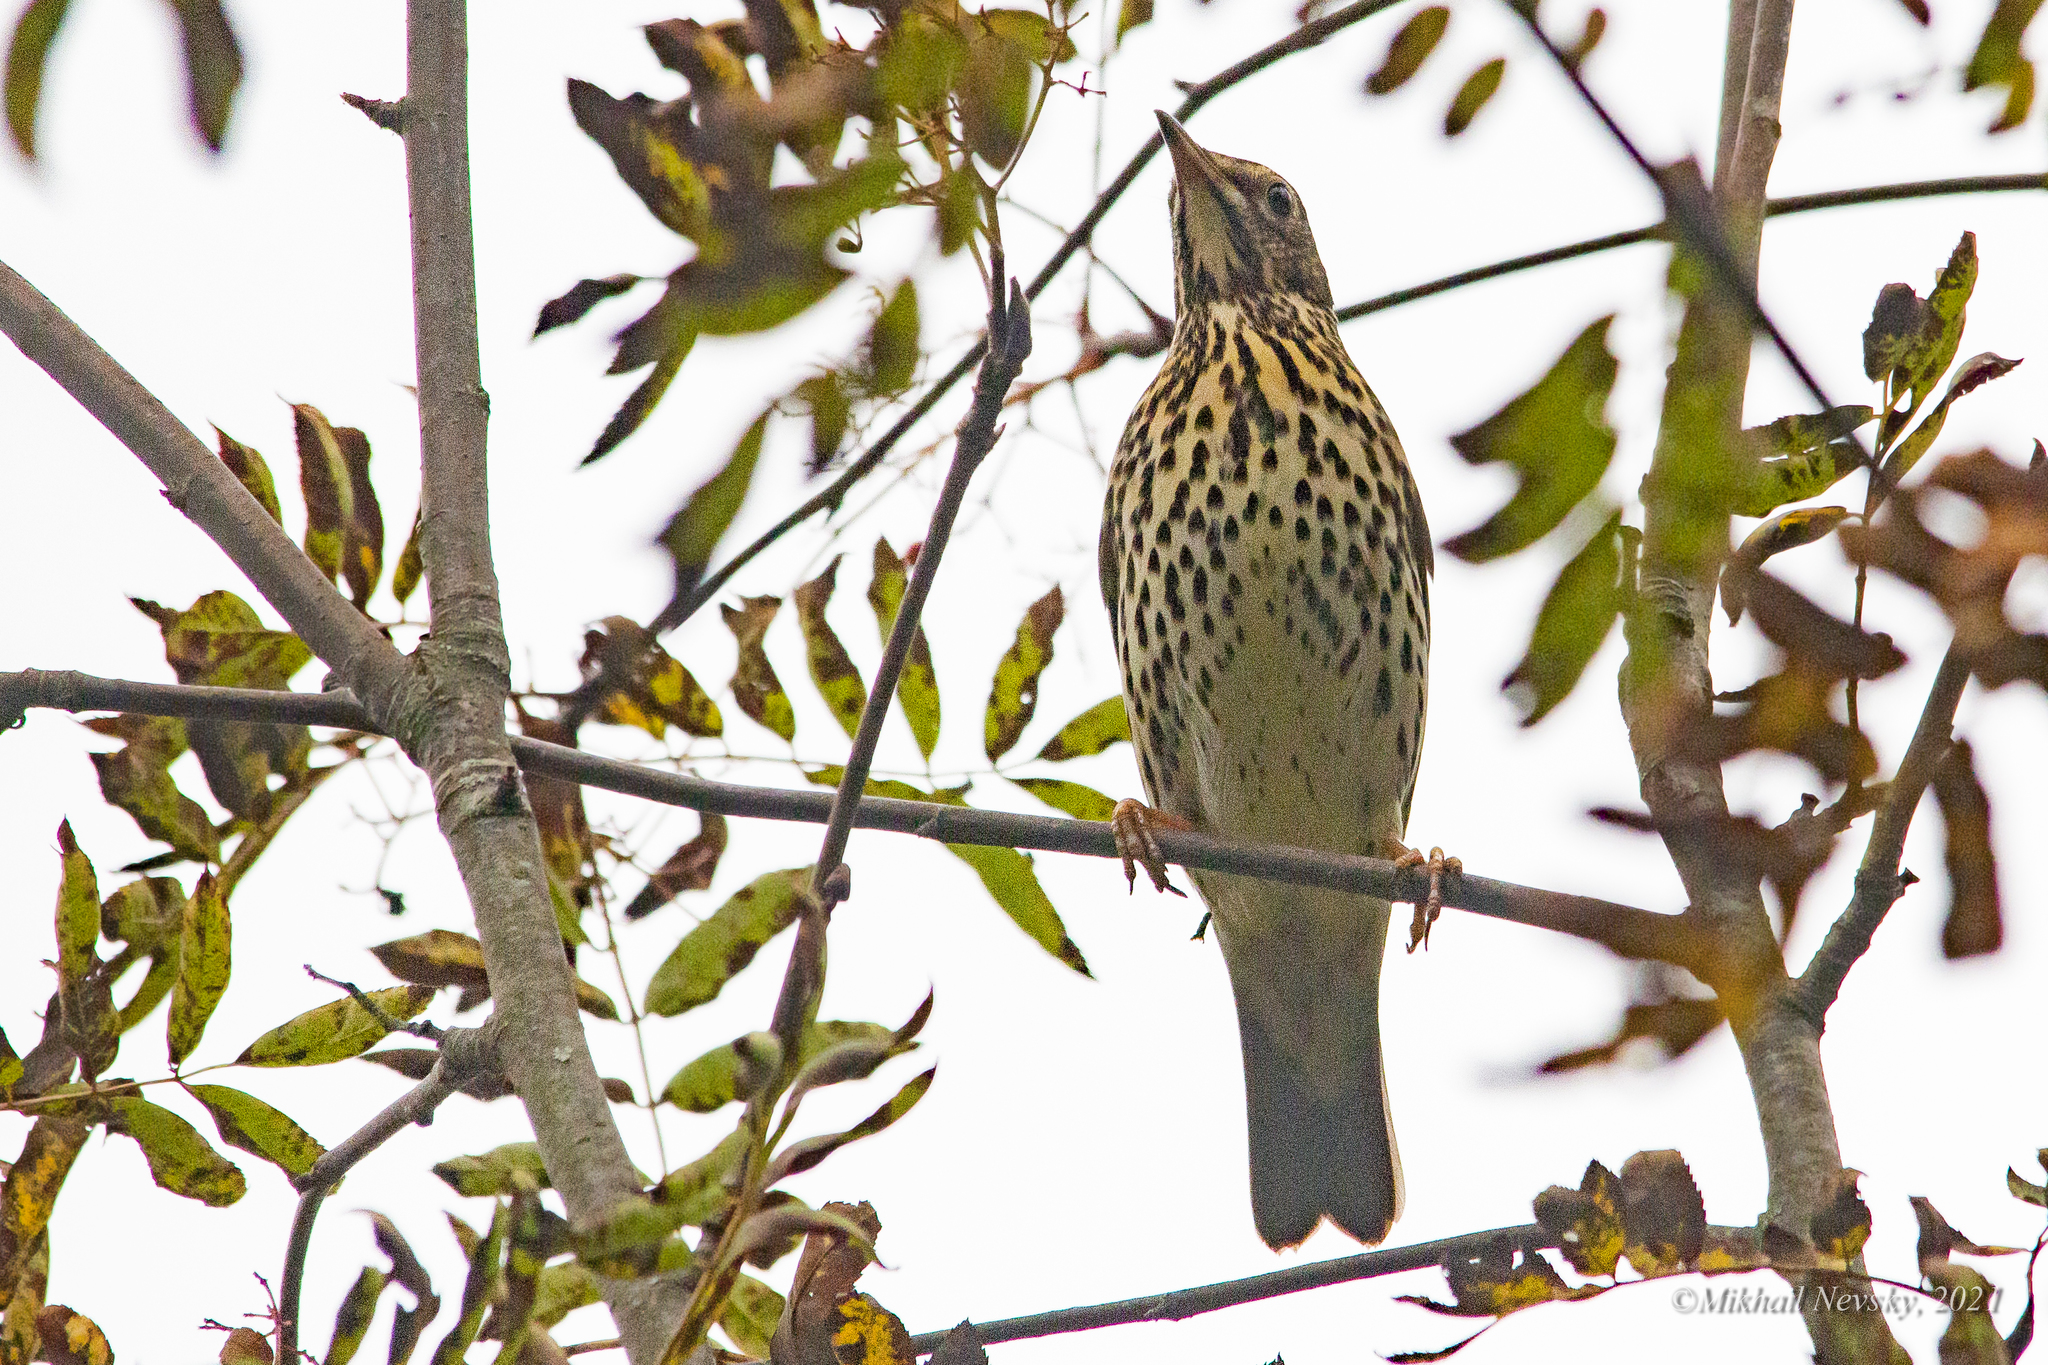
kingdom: Animalia
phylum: Chordata
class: Aves
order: Passeriformes
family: Turdidae
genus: Turdus
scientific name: Turdus philomelos
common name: Song thrush
